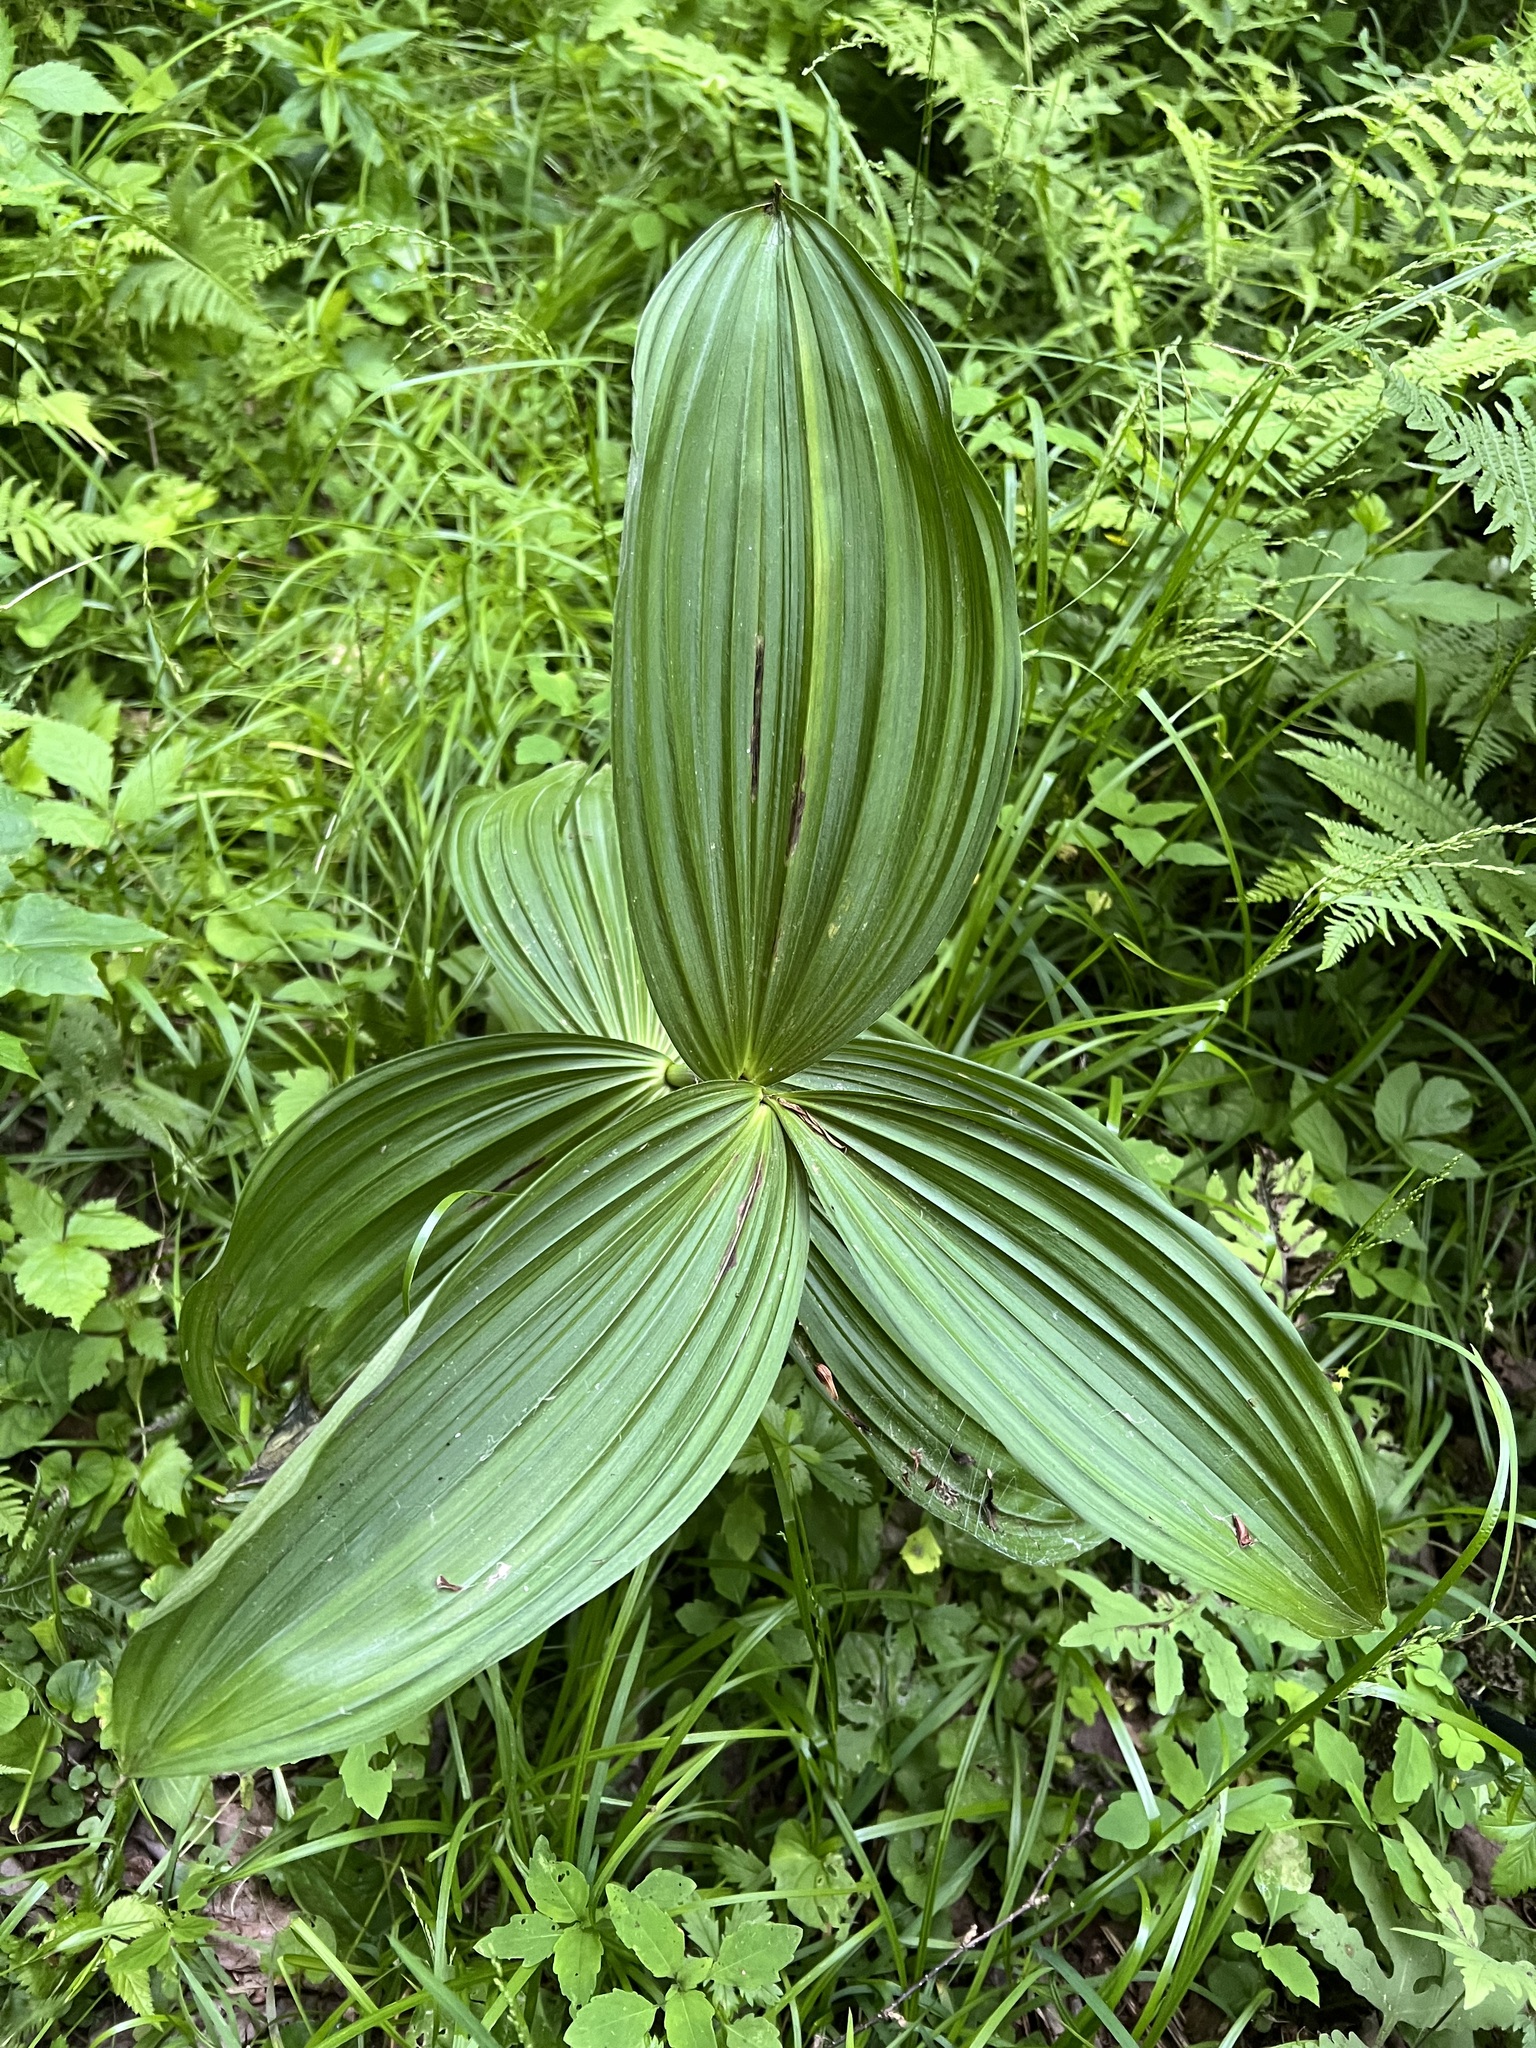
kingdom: Plantae
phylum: Tracheophyta
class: Liliopsida
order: Liliales
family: Melanthiaceae
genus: Veratrum
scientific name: Veratrum viride
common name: American false hellebore
